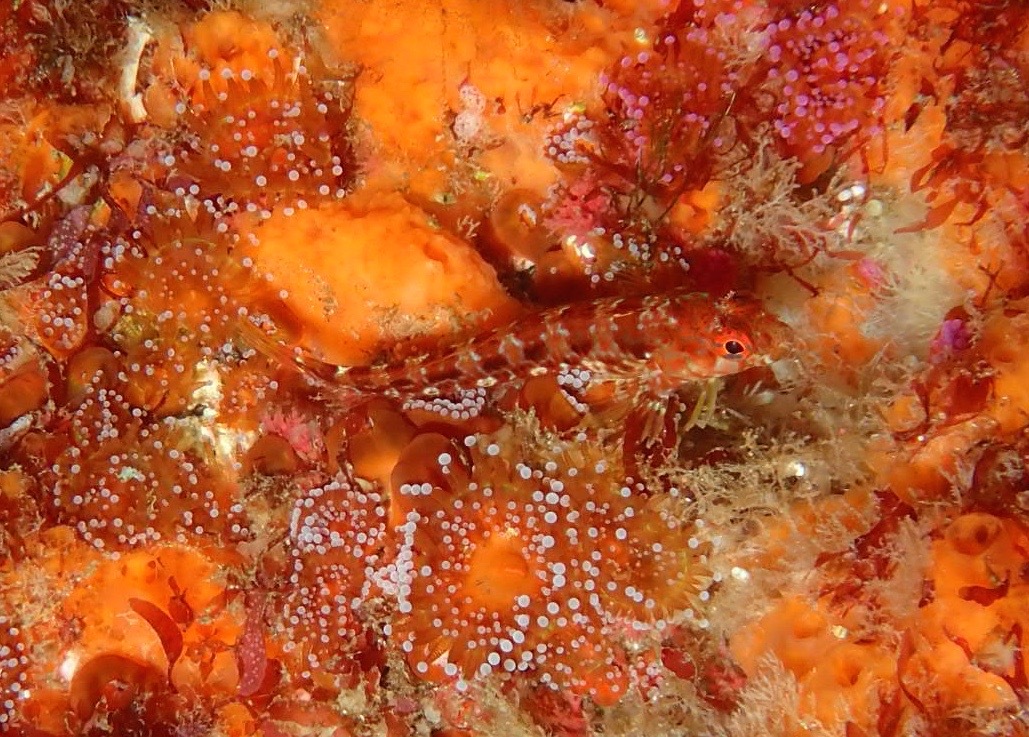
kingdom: Animalia
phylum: Chordata
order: Perciformes
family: Blenniidae
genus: Parablennius
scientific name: Parablennius ruber
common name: Portuguese blenny
